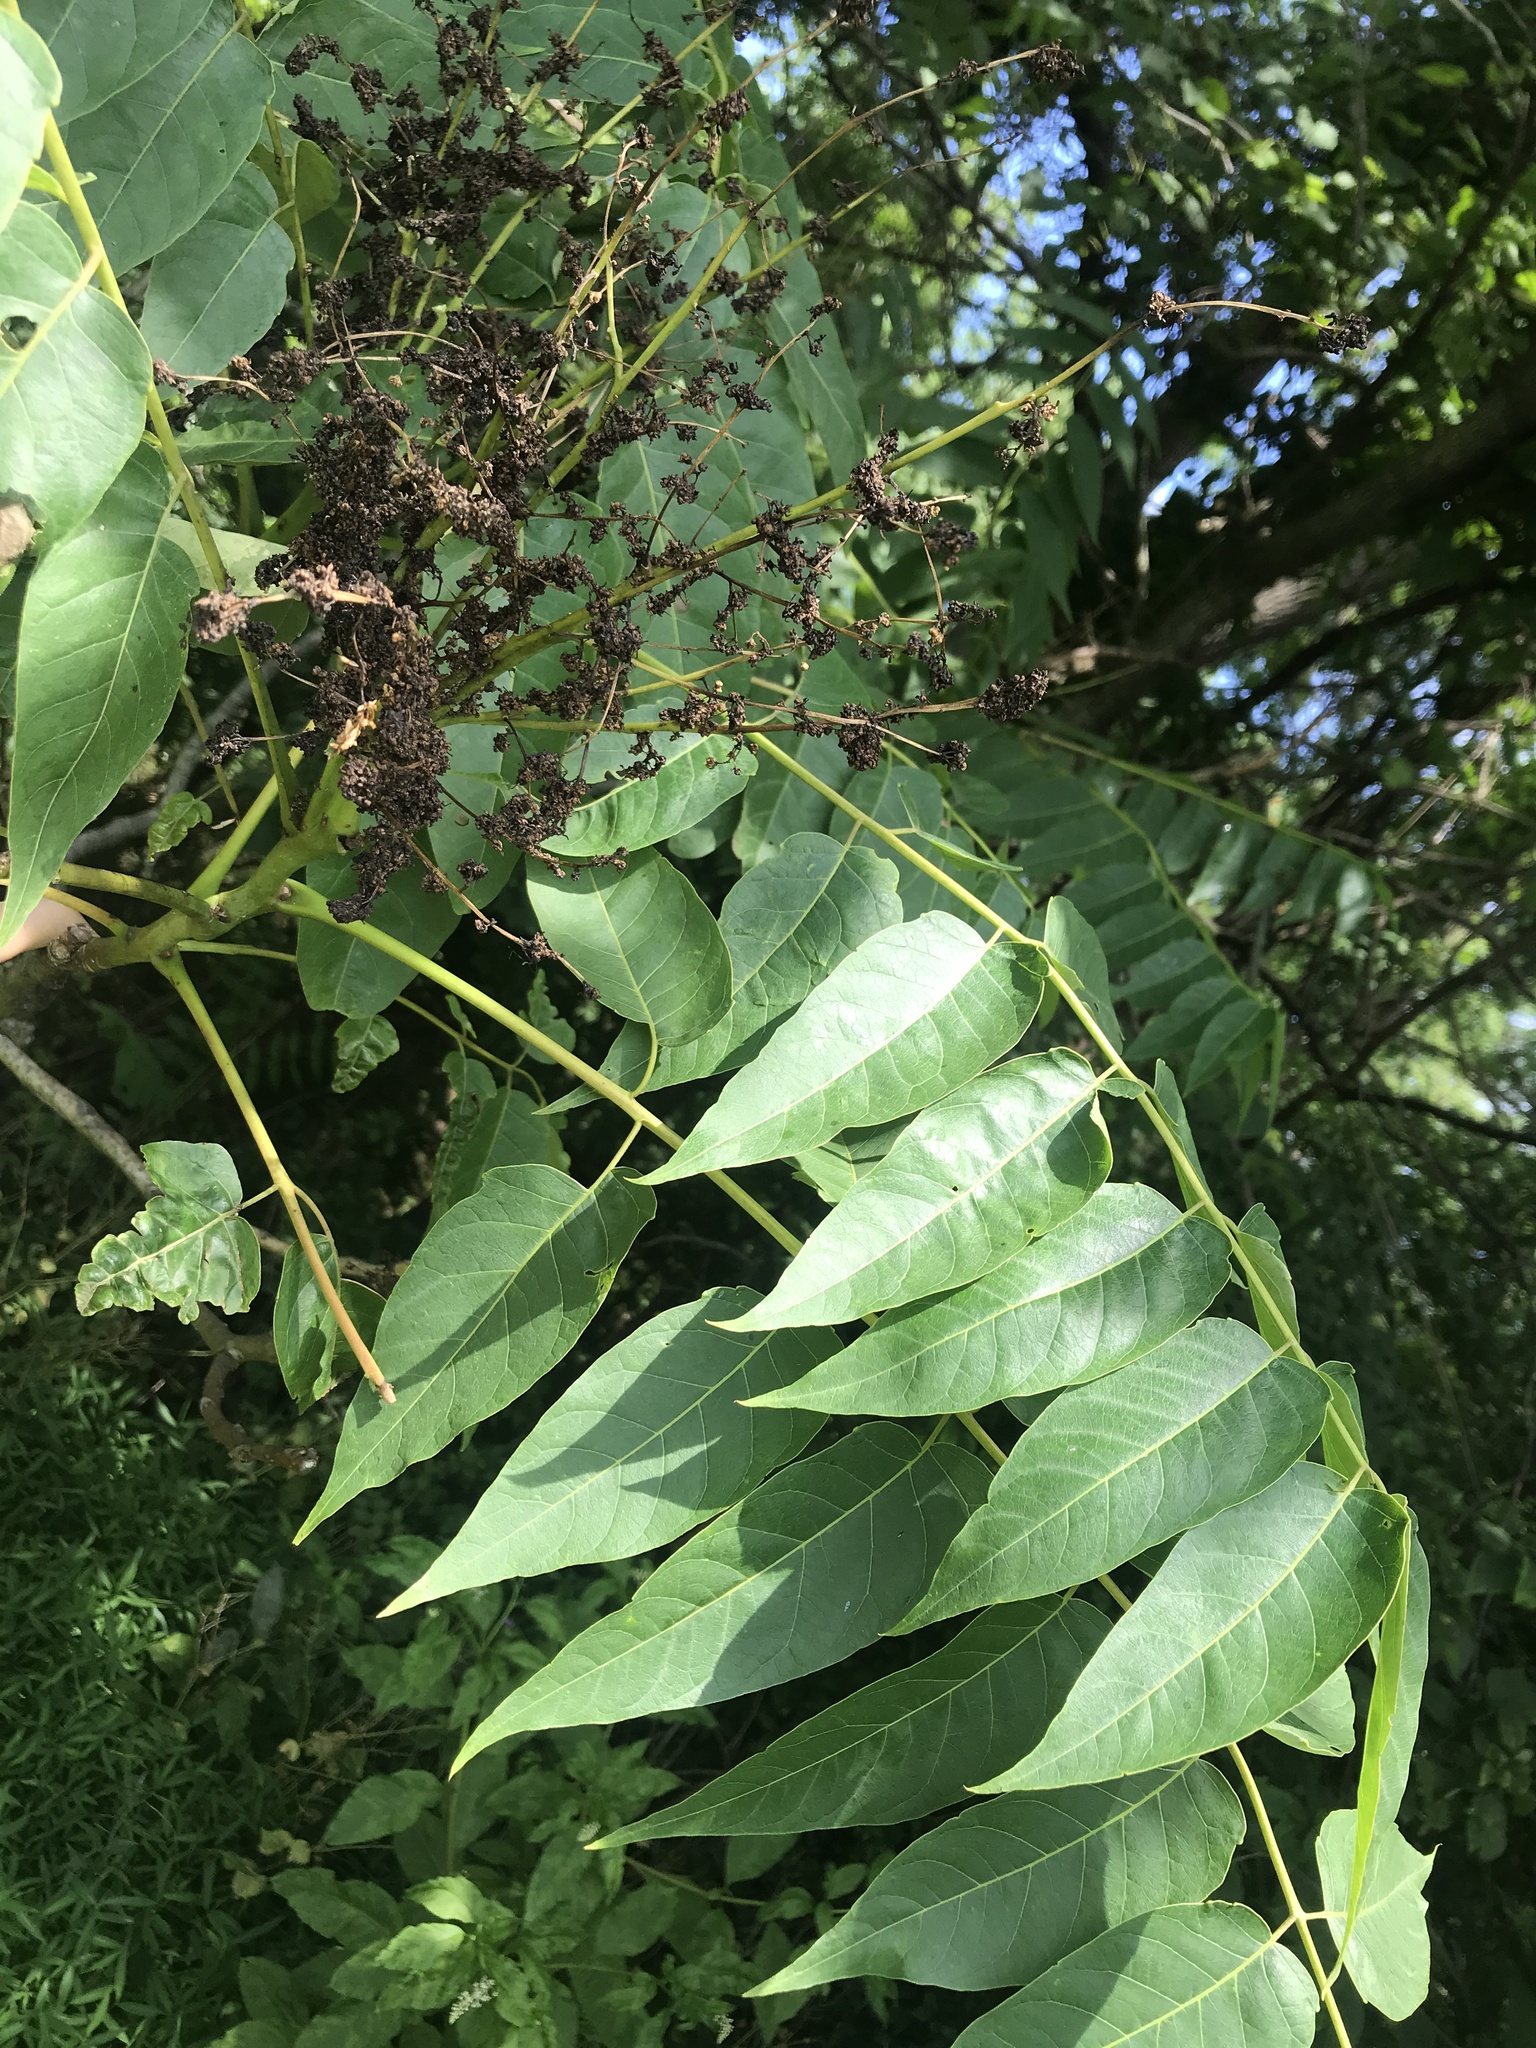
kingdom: Plantae
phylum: Tracheophyta
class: Magnoliopsida
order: Sapindales
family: Simaroubaceae
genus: Ailanthus
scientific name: Ailanthus altissima
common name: Tree-of-heaven
